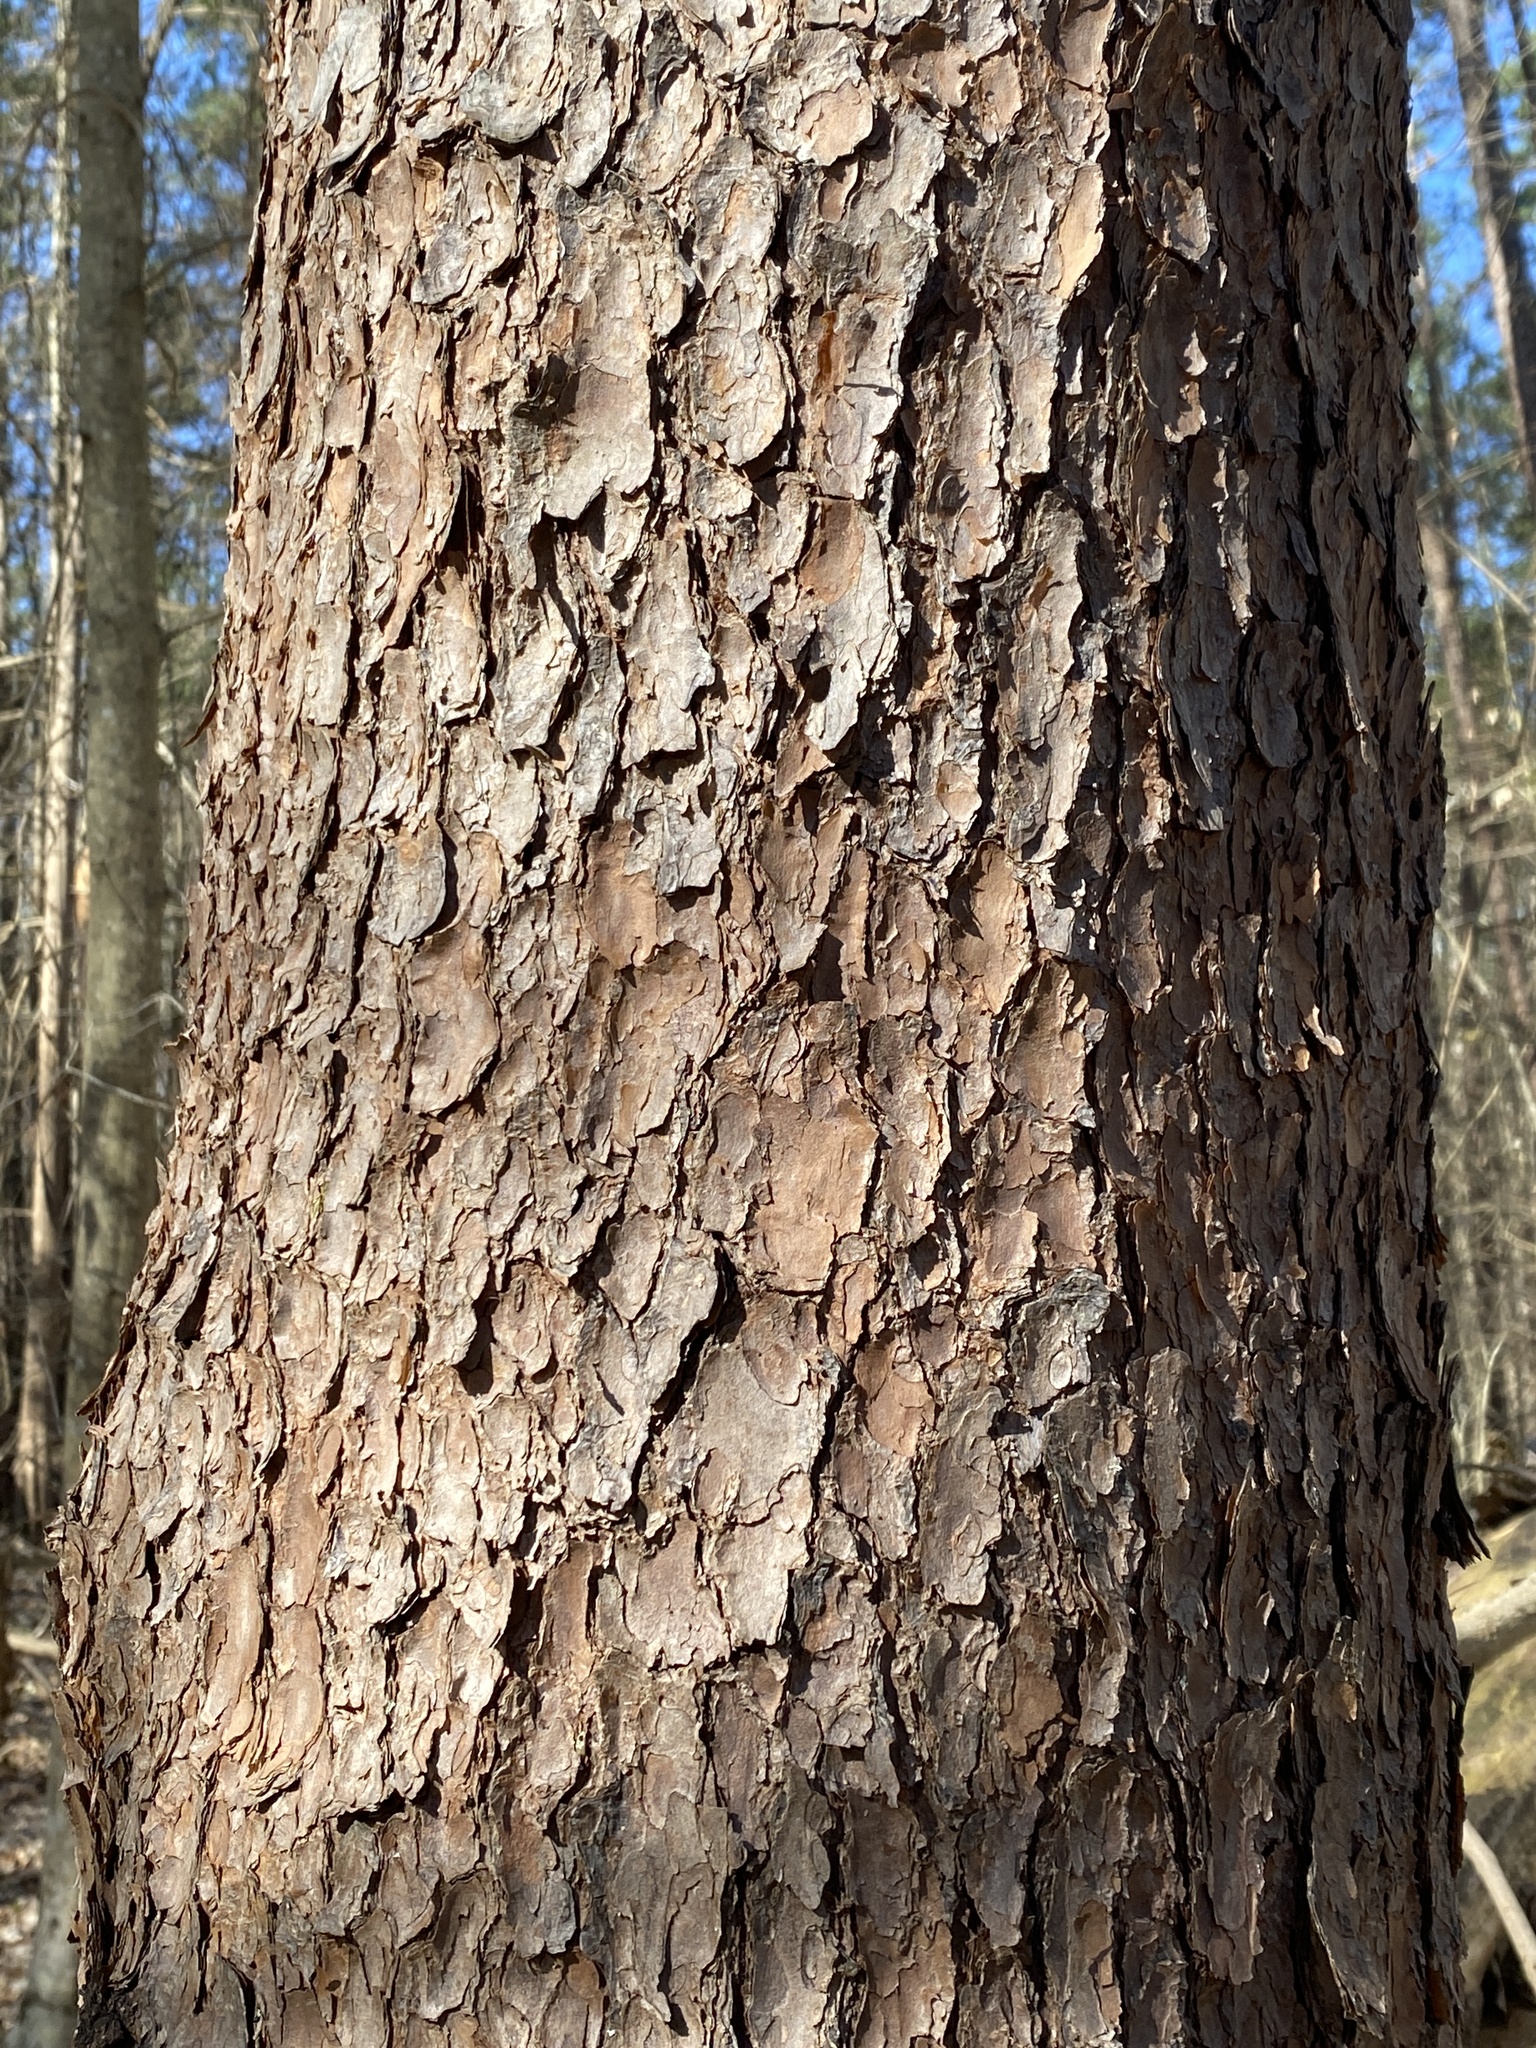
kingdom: Plantae
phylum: Tracheophyta
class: Pinopsida
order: Pinales
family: Pinaceae
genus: Pinus
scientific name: Pinus virginiana
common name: Scrub pine
